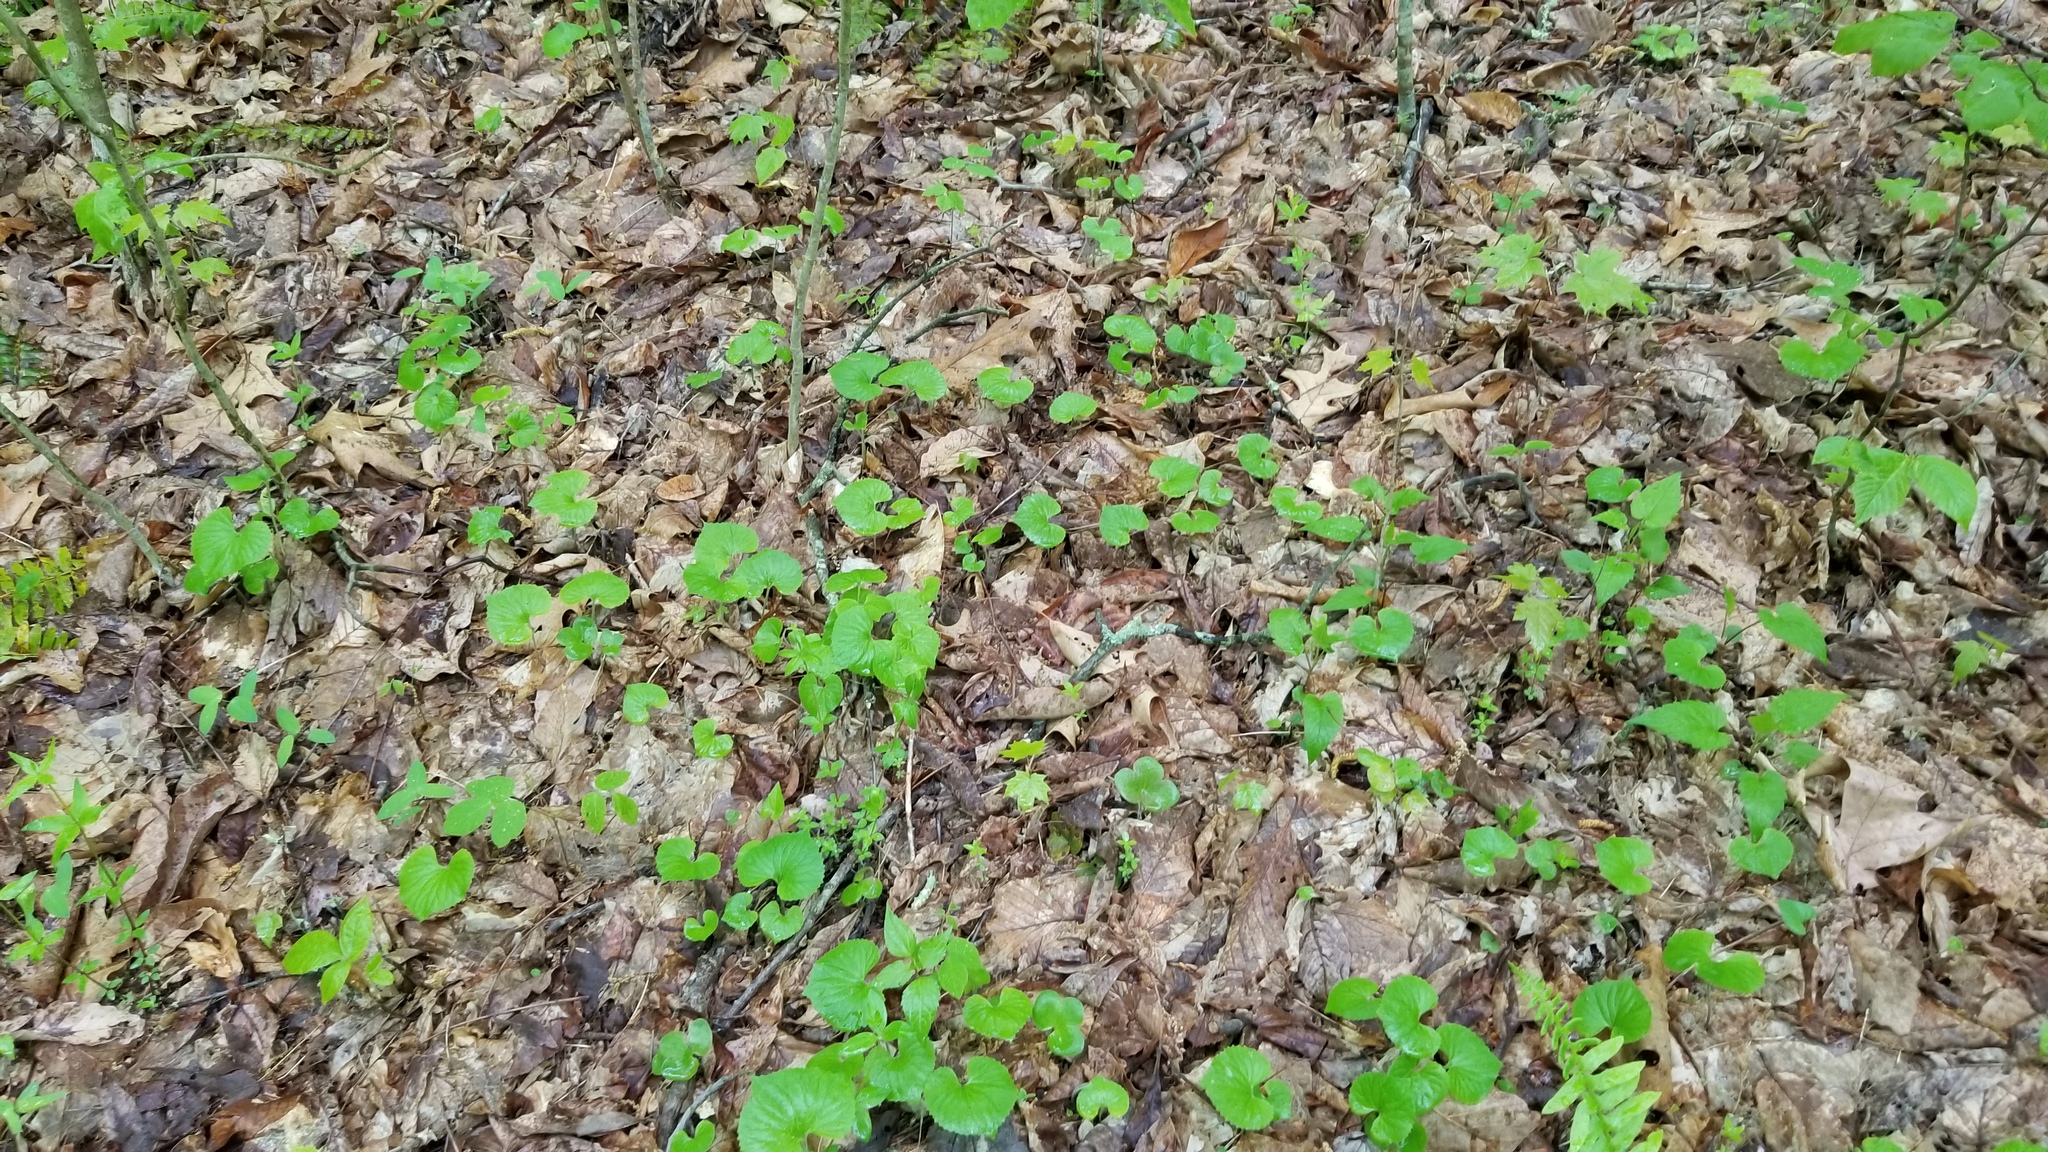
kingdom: Plantae
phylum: Tracheophyta
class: Magnoliopsida
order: Malpighiales
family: Violaceae
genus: Viola
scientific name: Viola pubescens
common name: Yellow forest violet
